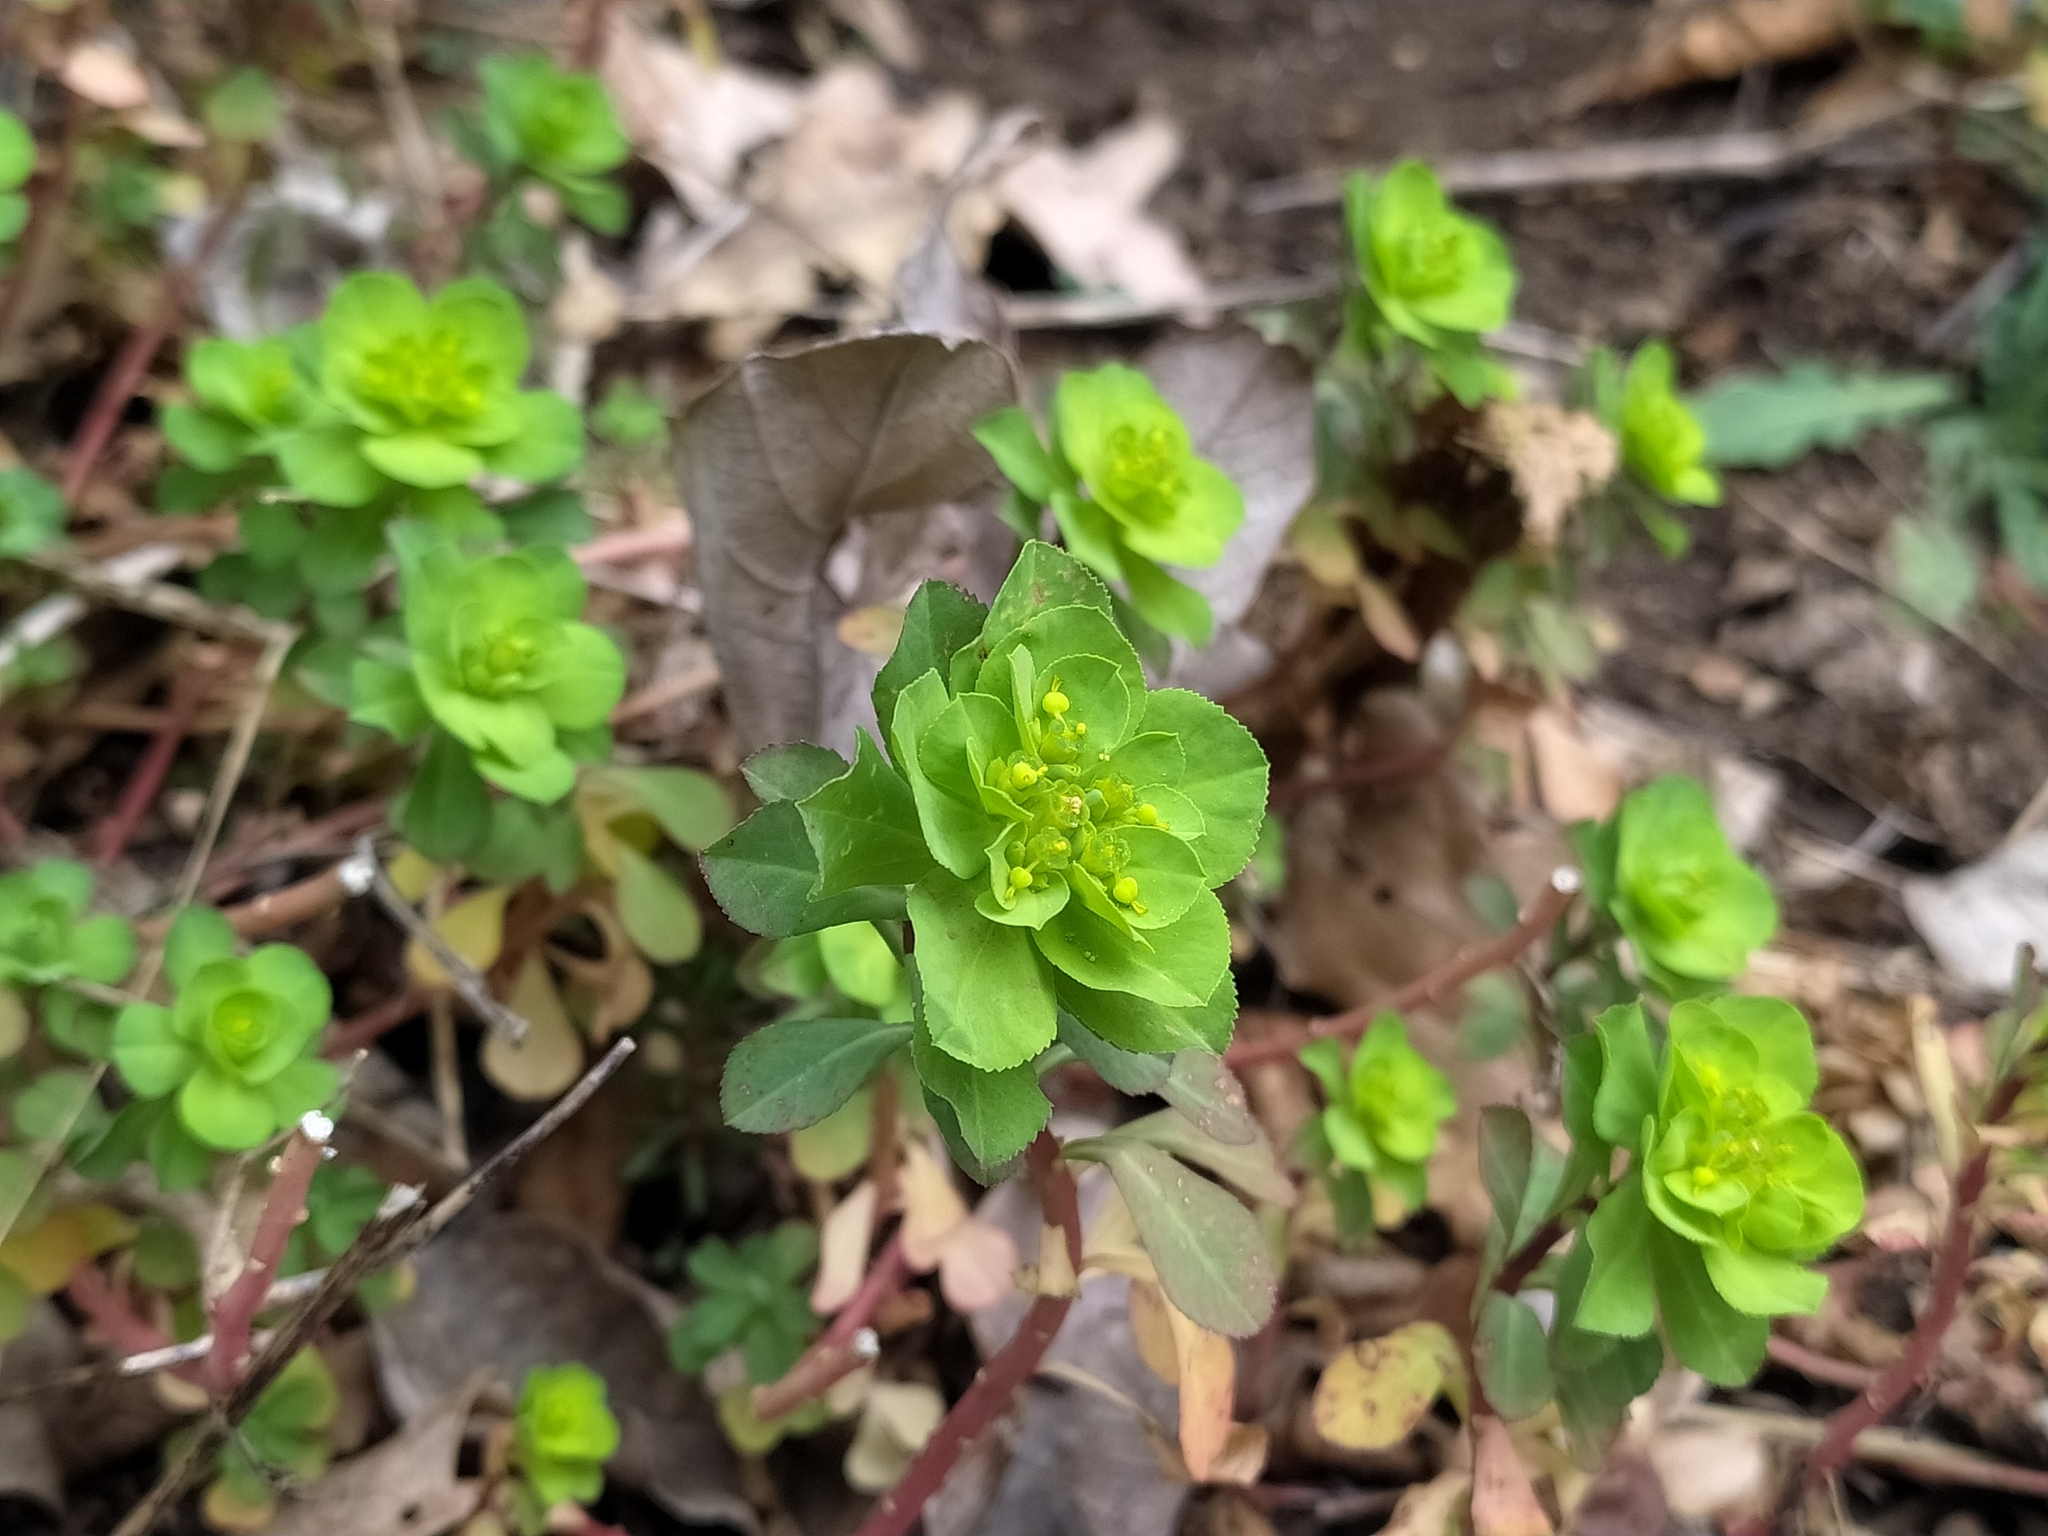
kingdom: Plantae
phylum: Tracheophyta
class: Magnoliopsida
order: Malpighiales
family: Euphorbiaceae
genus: Euphorbia
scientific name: Euphorbia helioscopia
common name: Sun spurge
